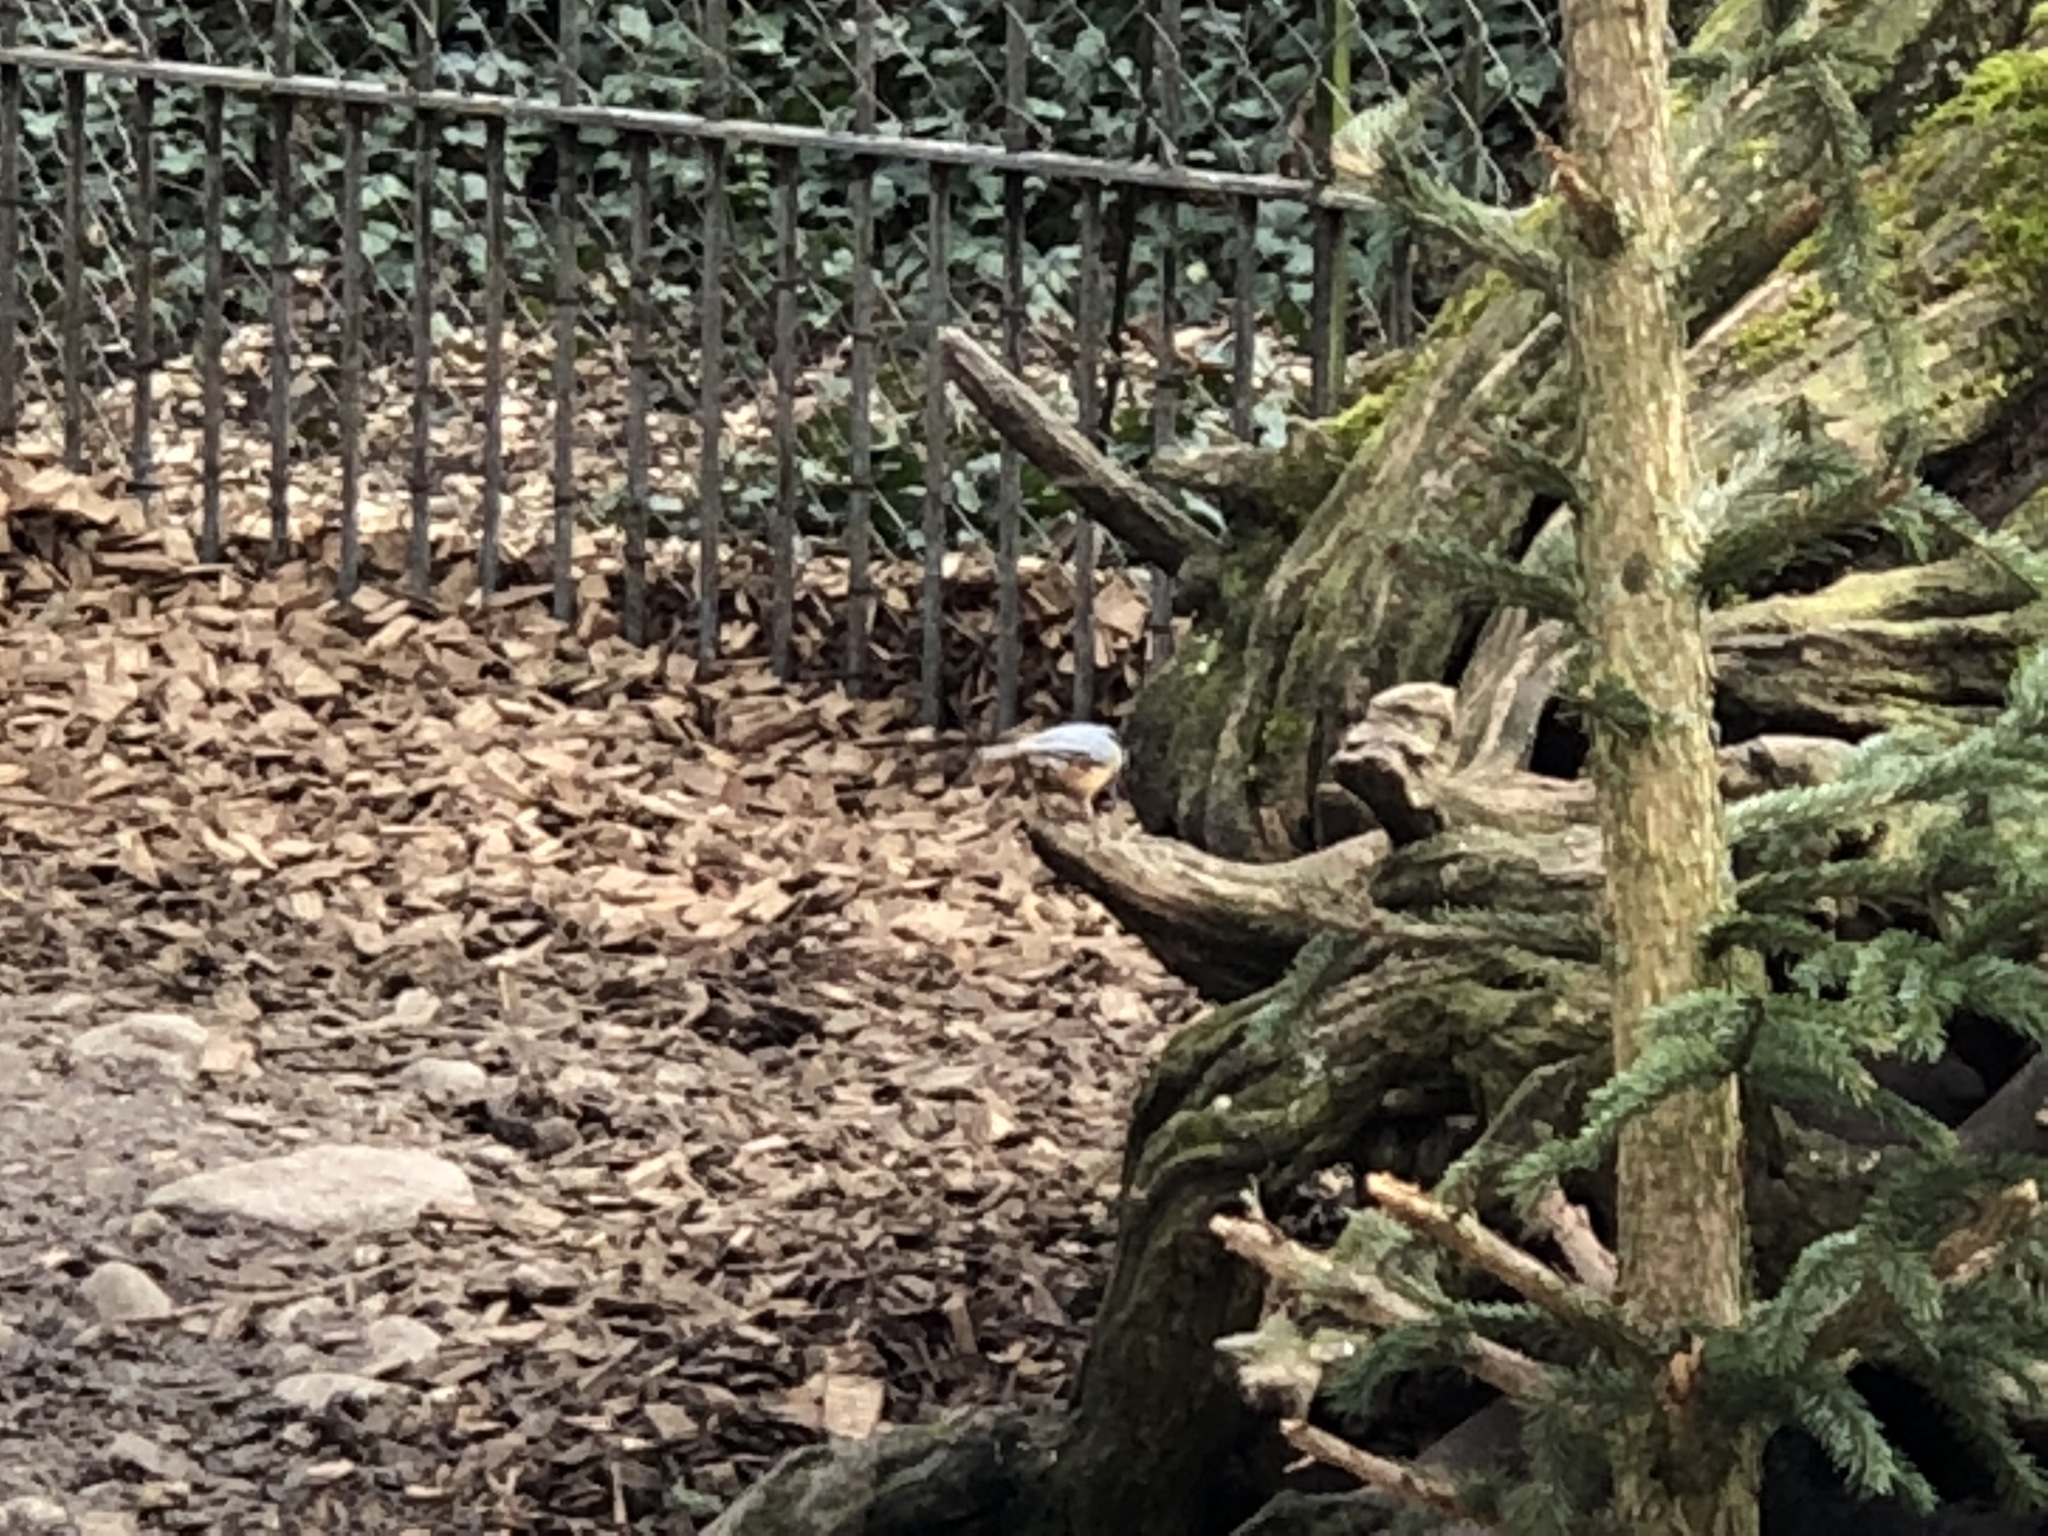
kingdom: Animalia
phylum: Chordata
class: Aves
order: Passeriformes
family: Sittidae
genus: Sitta
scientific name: Sitta europaea
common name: Eurasian nuthatch
